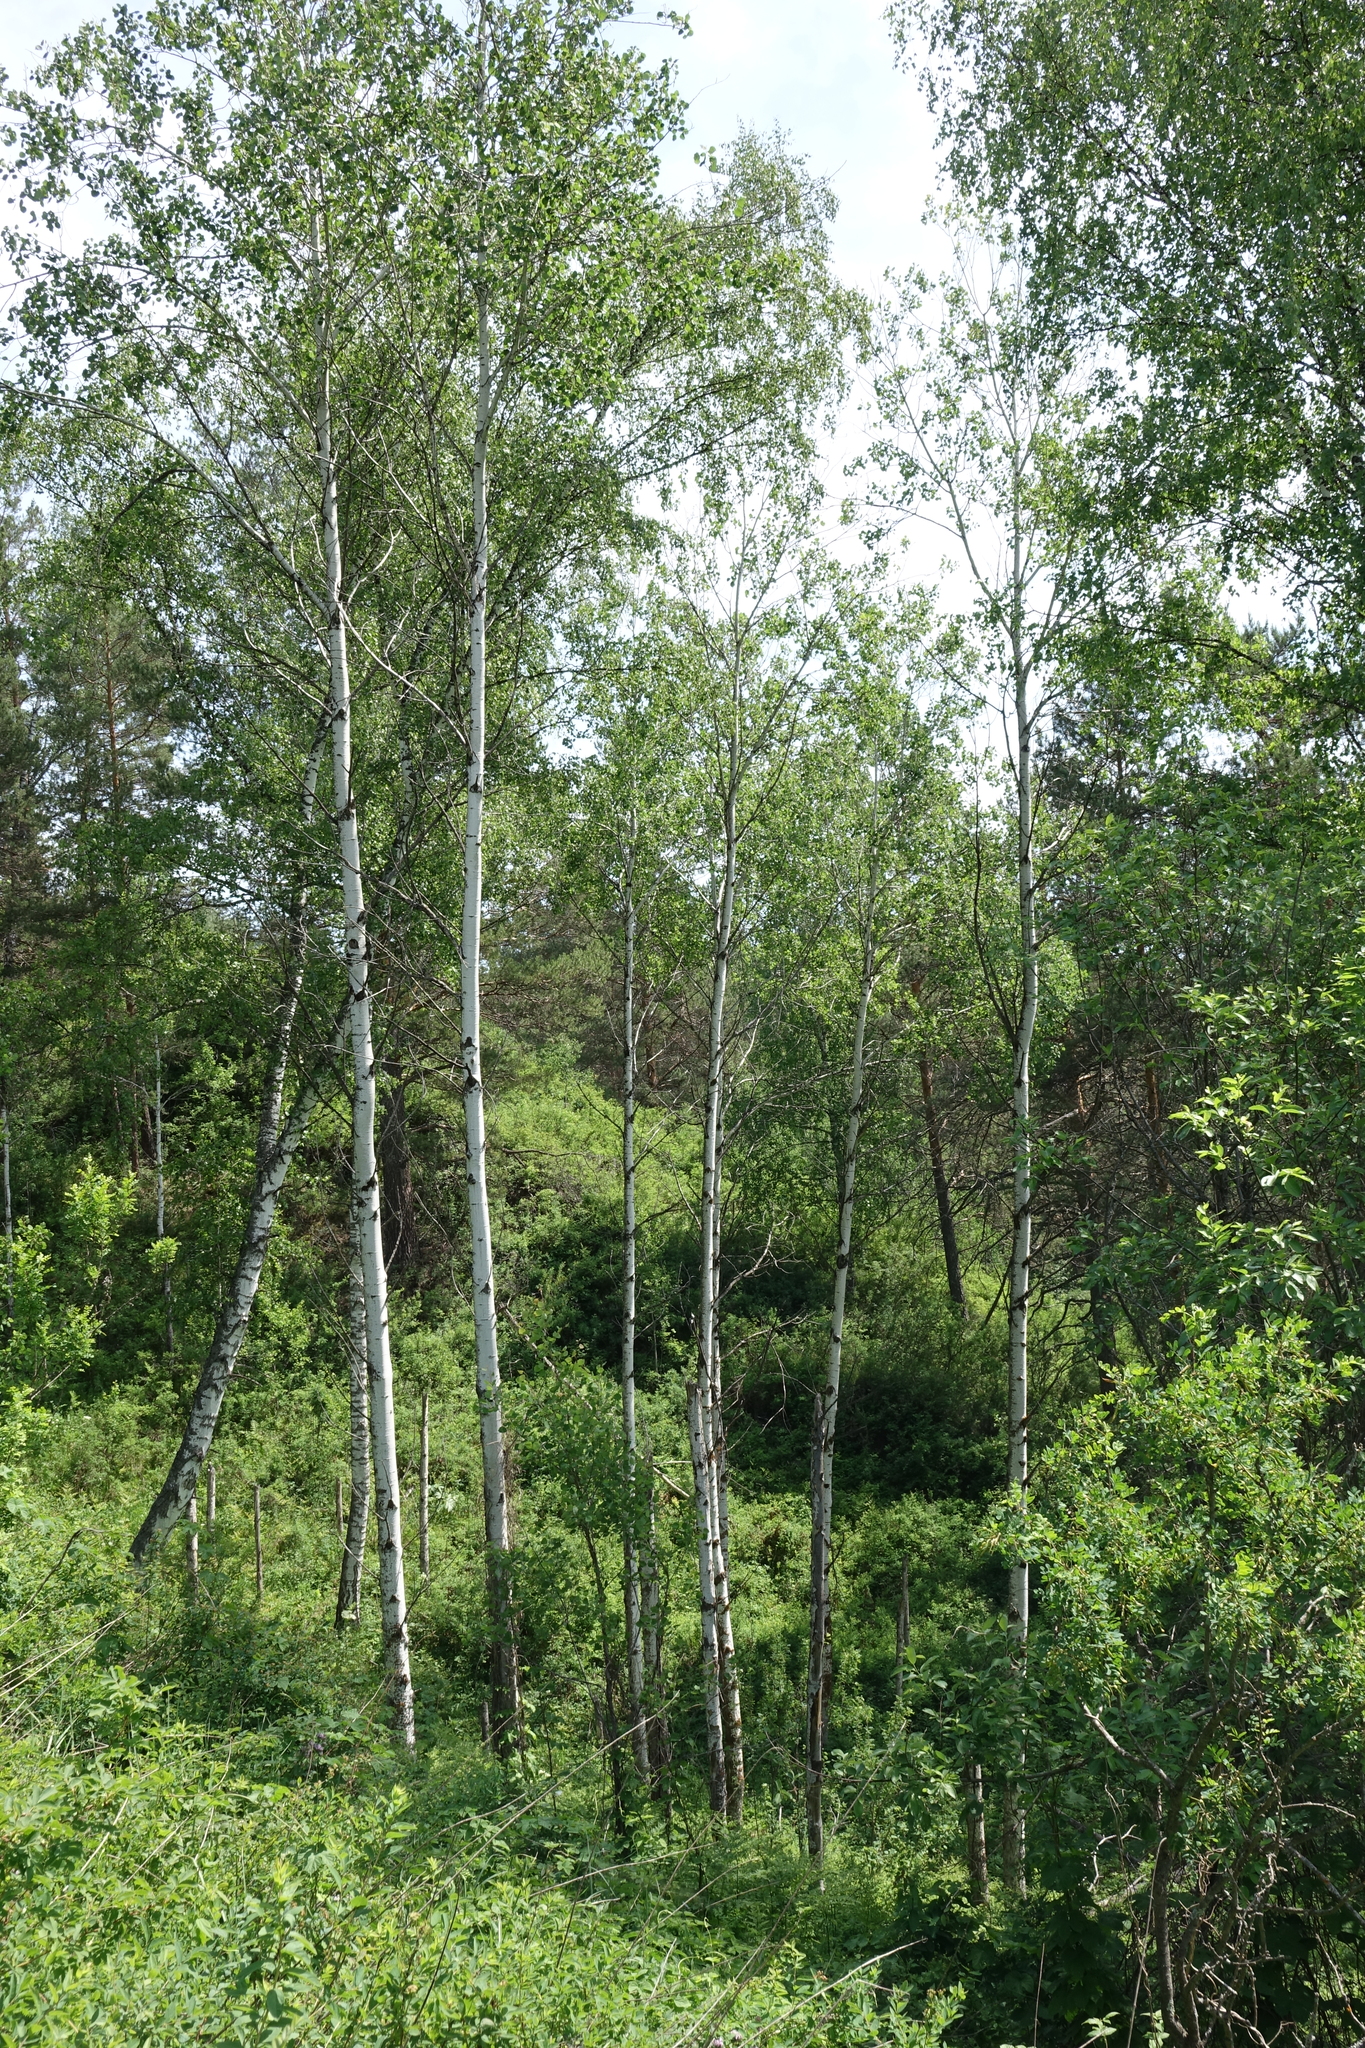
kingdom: Plantae
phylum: Tracheophyta
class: Magnoliopsida
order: Malpighiales
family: Salicaceae
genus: Populus
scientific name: Populus tremula
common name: European aspen
